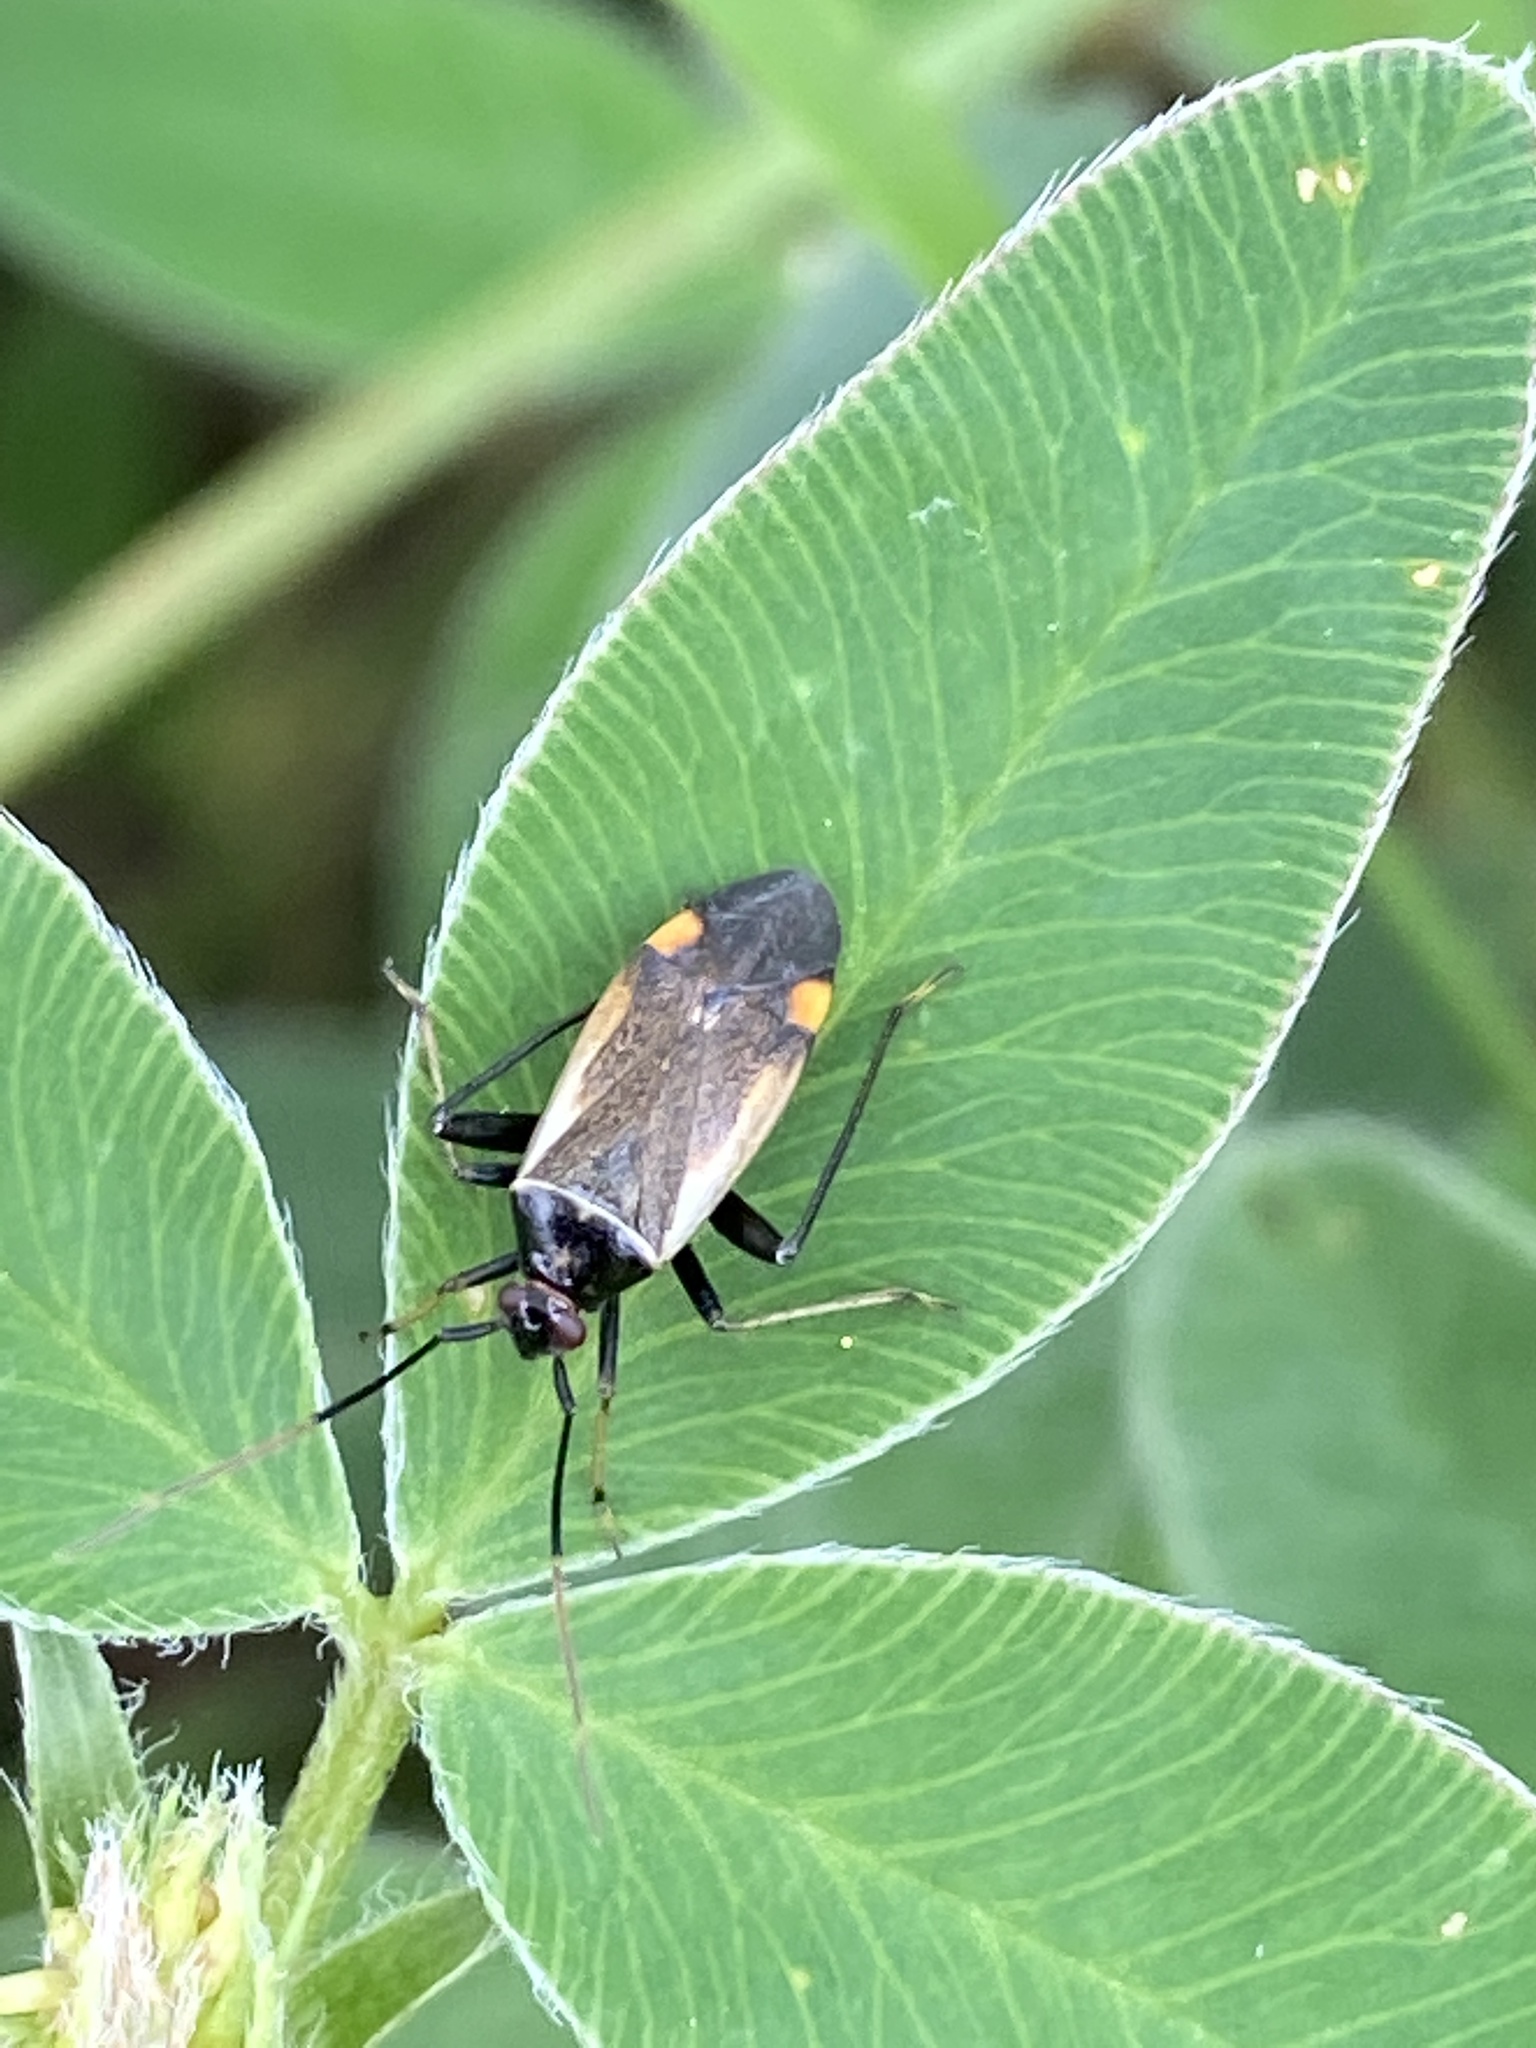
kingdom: Animalia
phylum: Arthropoda
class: Insecta
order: Hemiptera
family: Miridae
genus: Adelphocoris
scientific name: Adelphocoris seticornis
